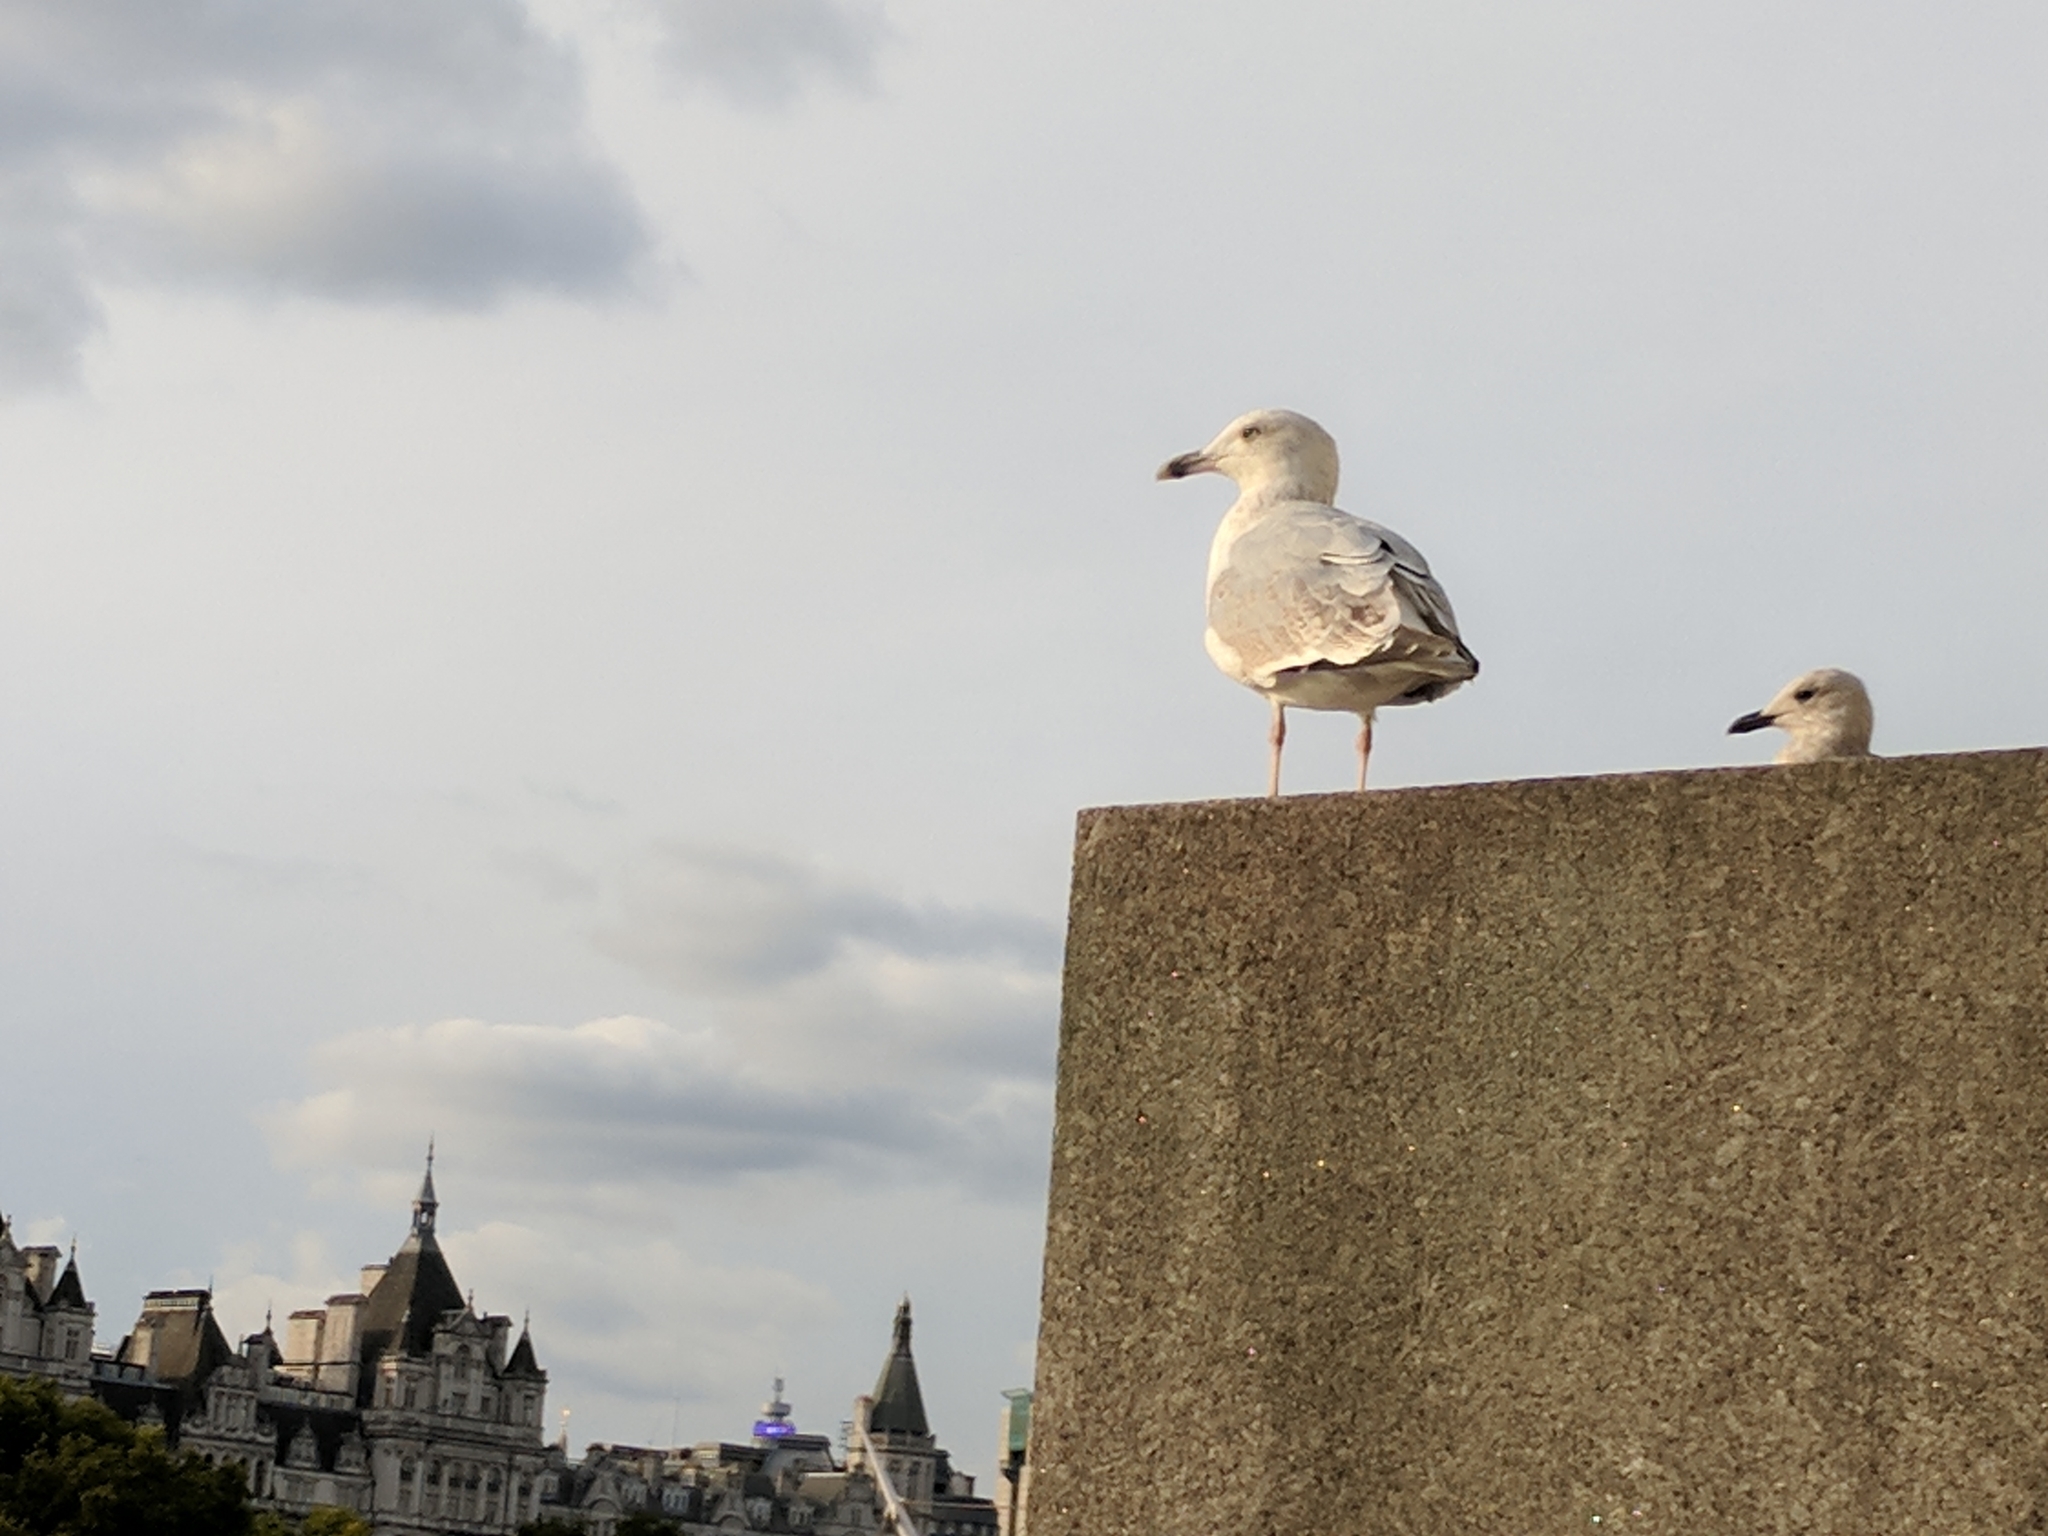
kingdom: Animalia
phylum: Chordata
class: Aves
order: Charadriiformes
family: Laridae
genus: Larus
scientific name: Larus argentatus
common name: Herring gull
